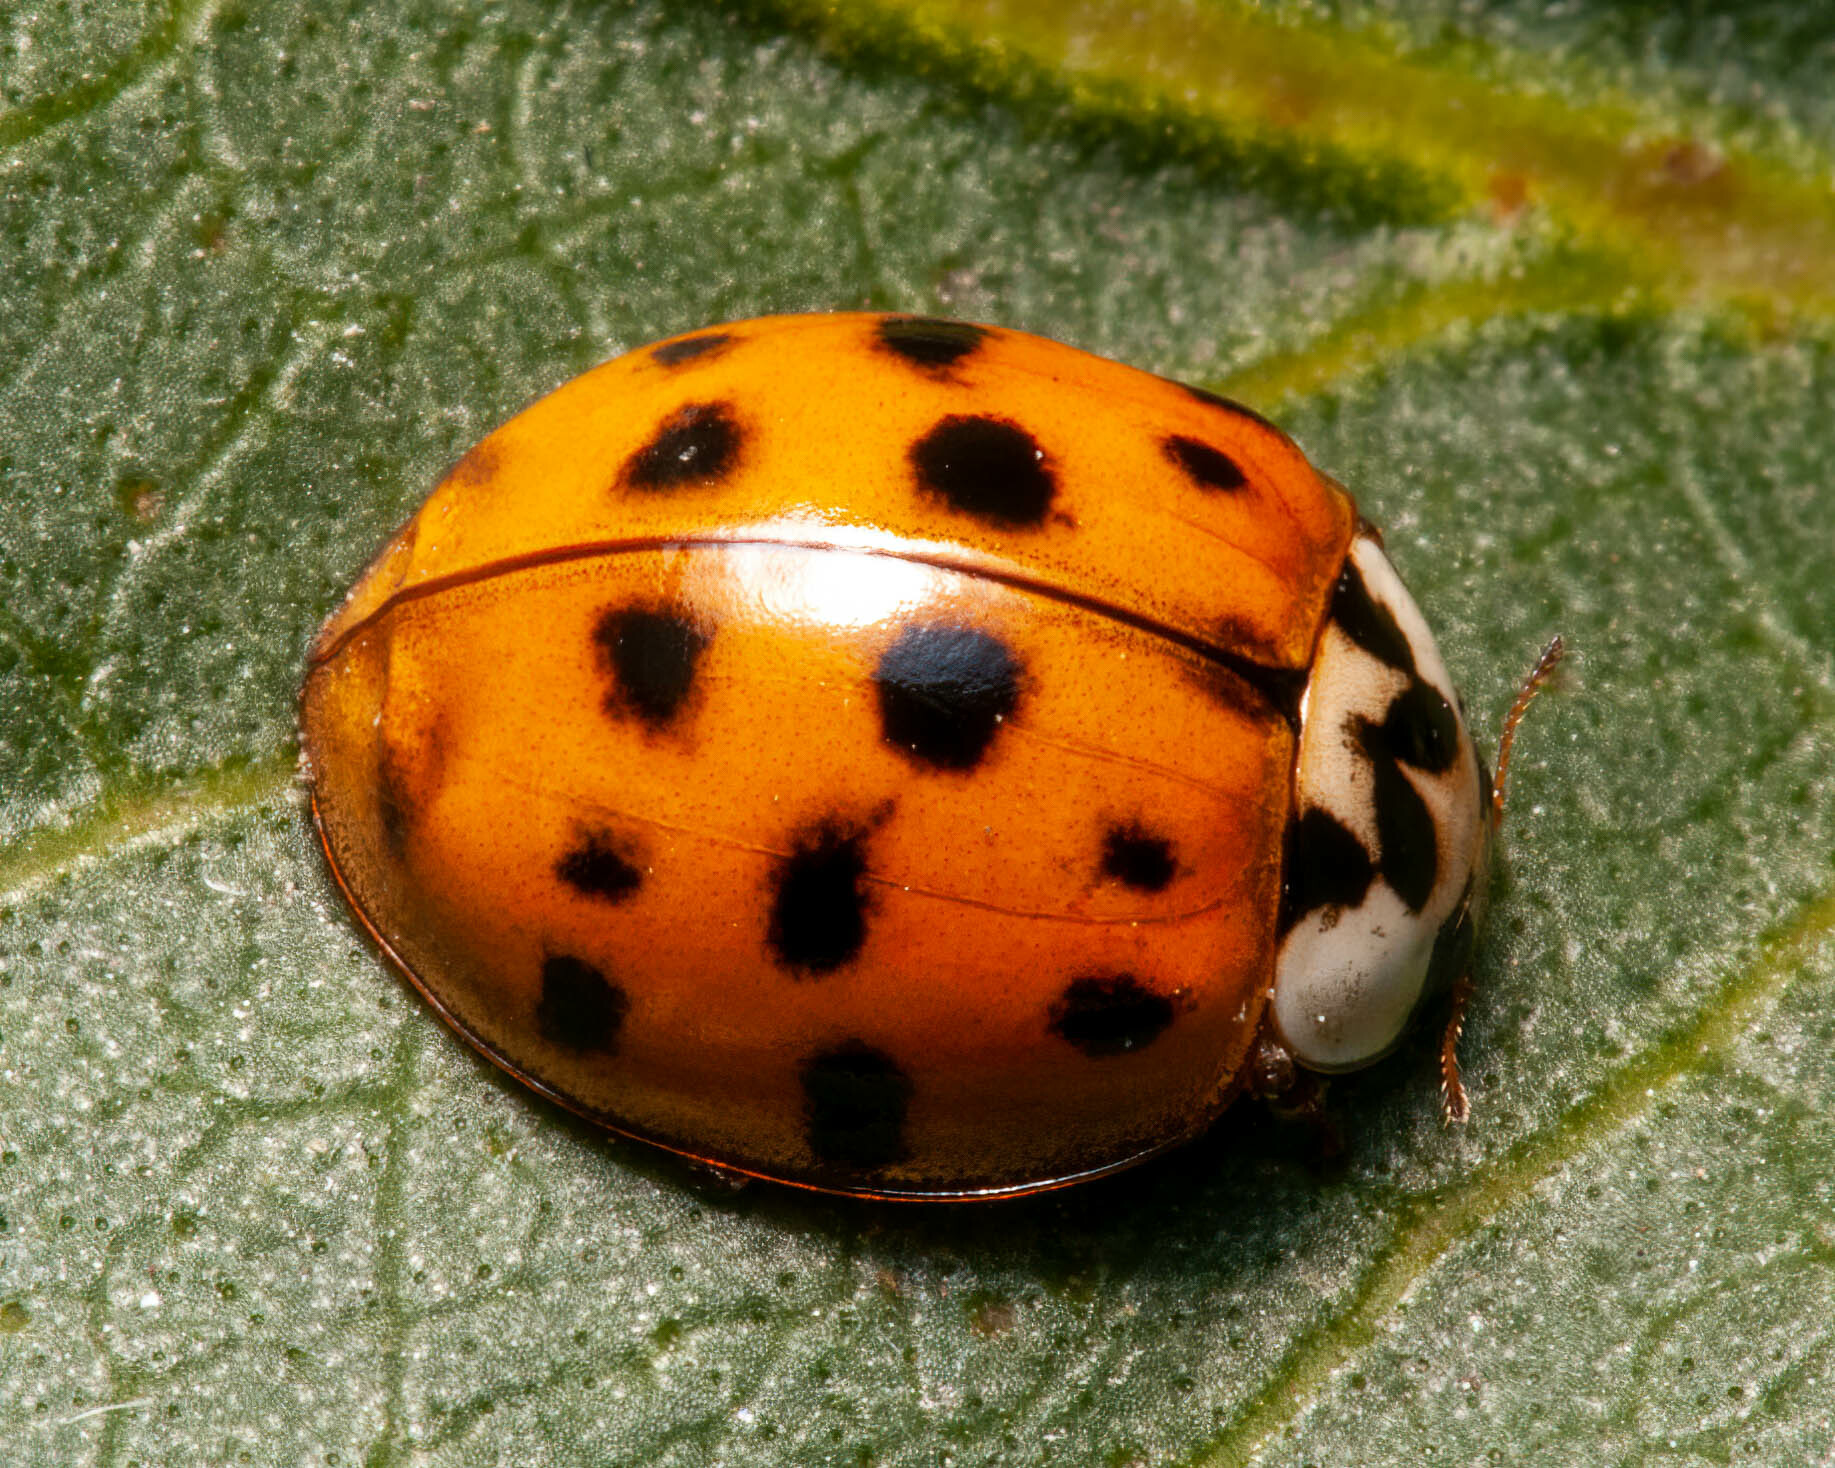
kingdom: Animalia
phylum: Arthropoda
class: Insecta
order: Coleoptera
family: Coccinellidae
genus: Harmonia
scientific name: Harmonia axyridis
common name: Harlequin ladybird
